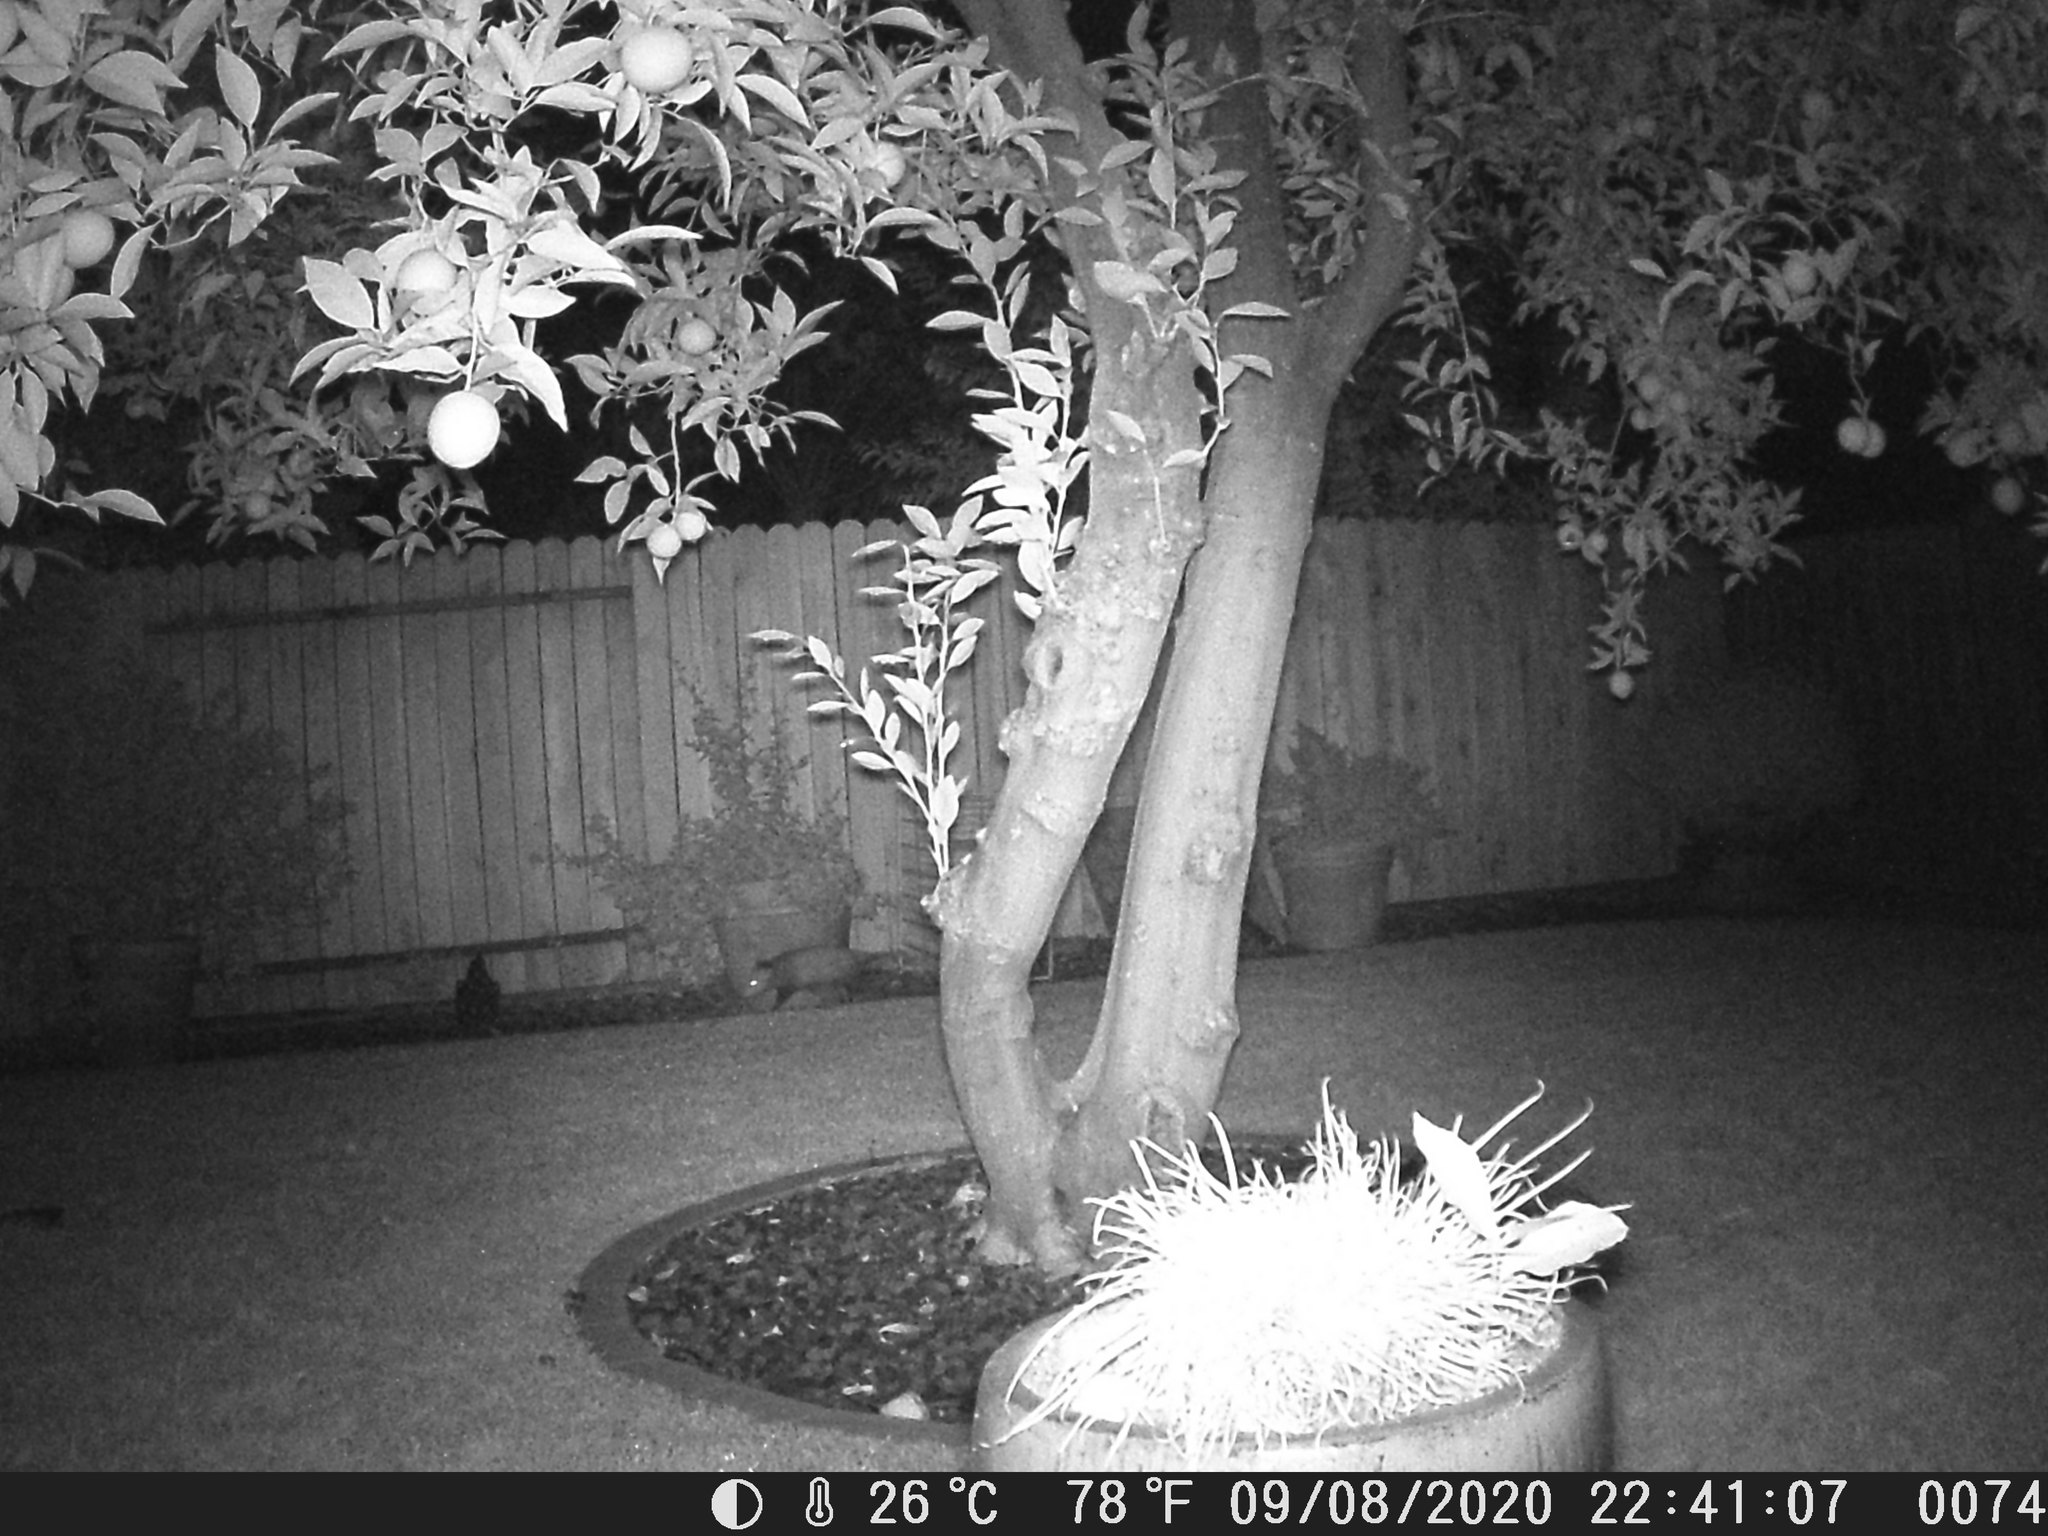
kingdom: Animalia
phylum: Chordata
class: Mammalia
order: Didelphimorphia
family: Didelphidae
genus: Didelphis
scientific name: Didelphis virginiana
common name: Virginia opossum
